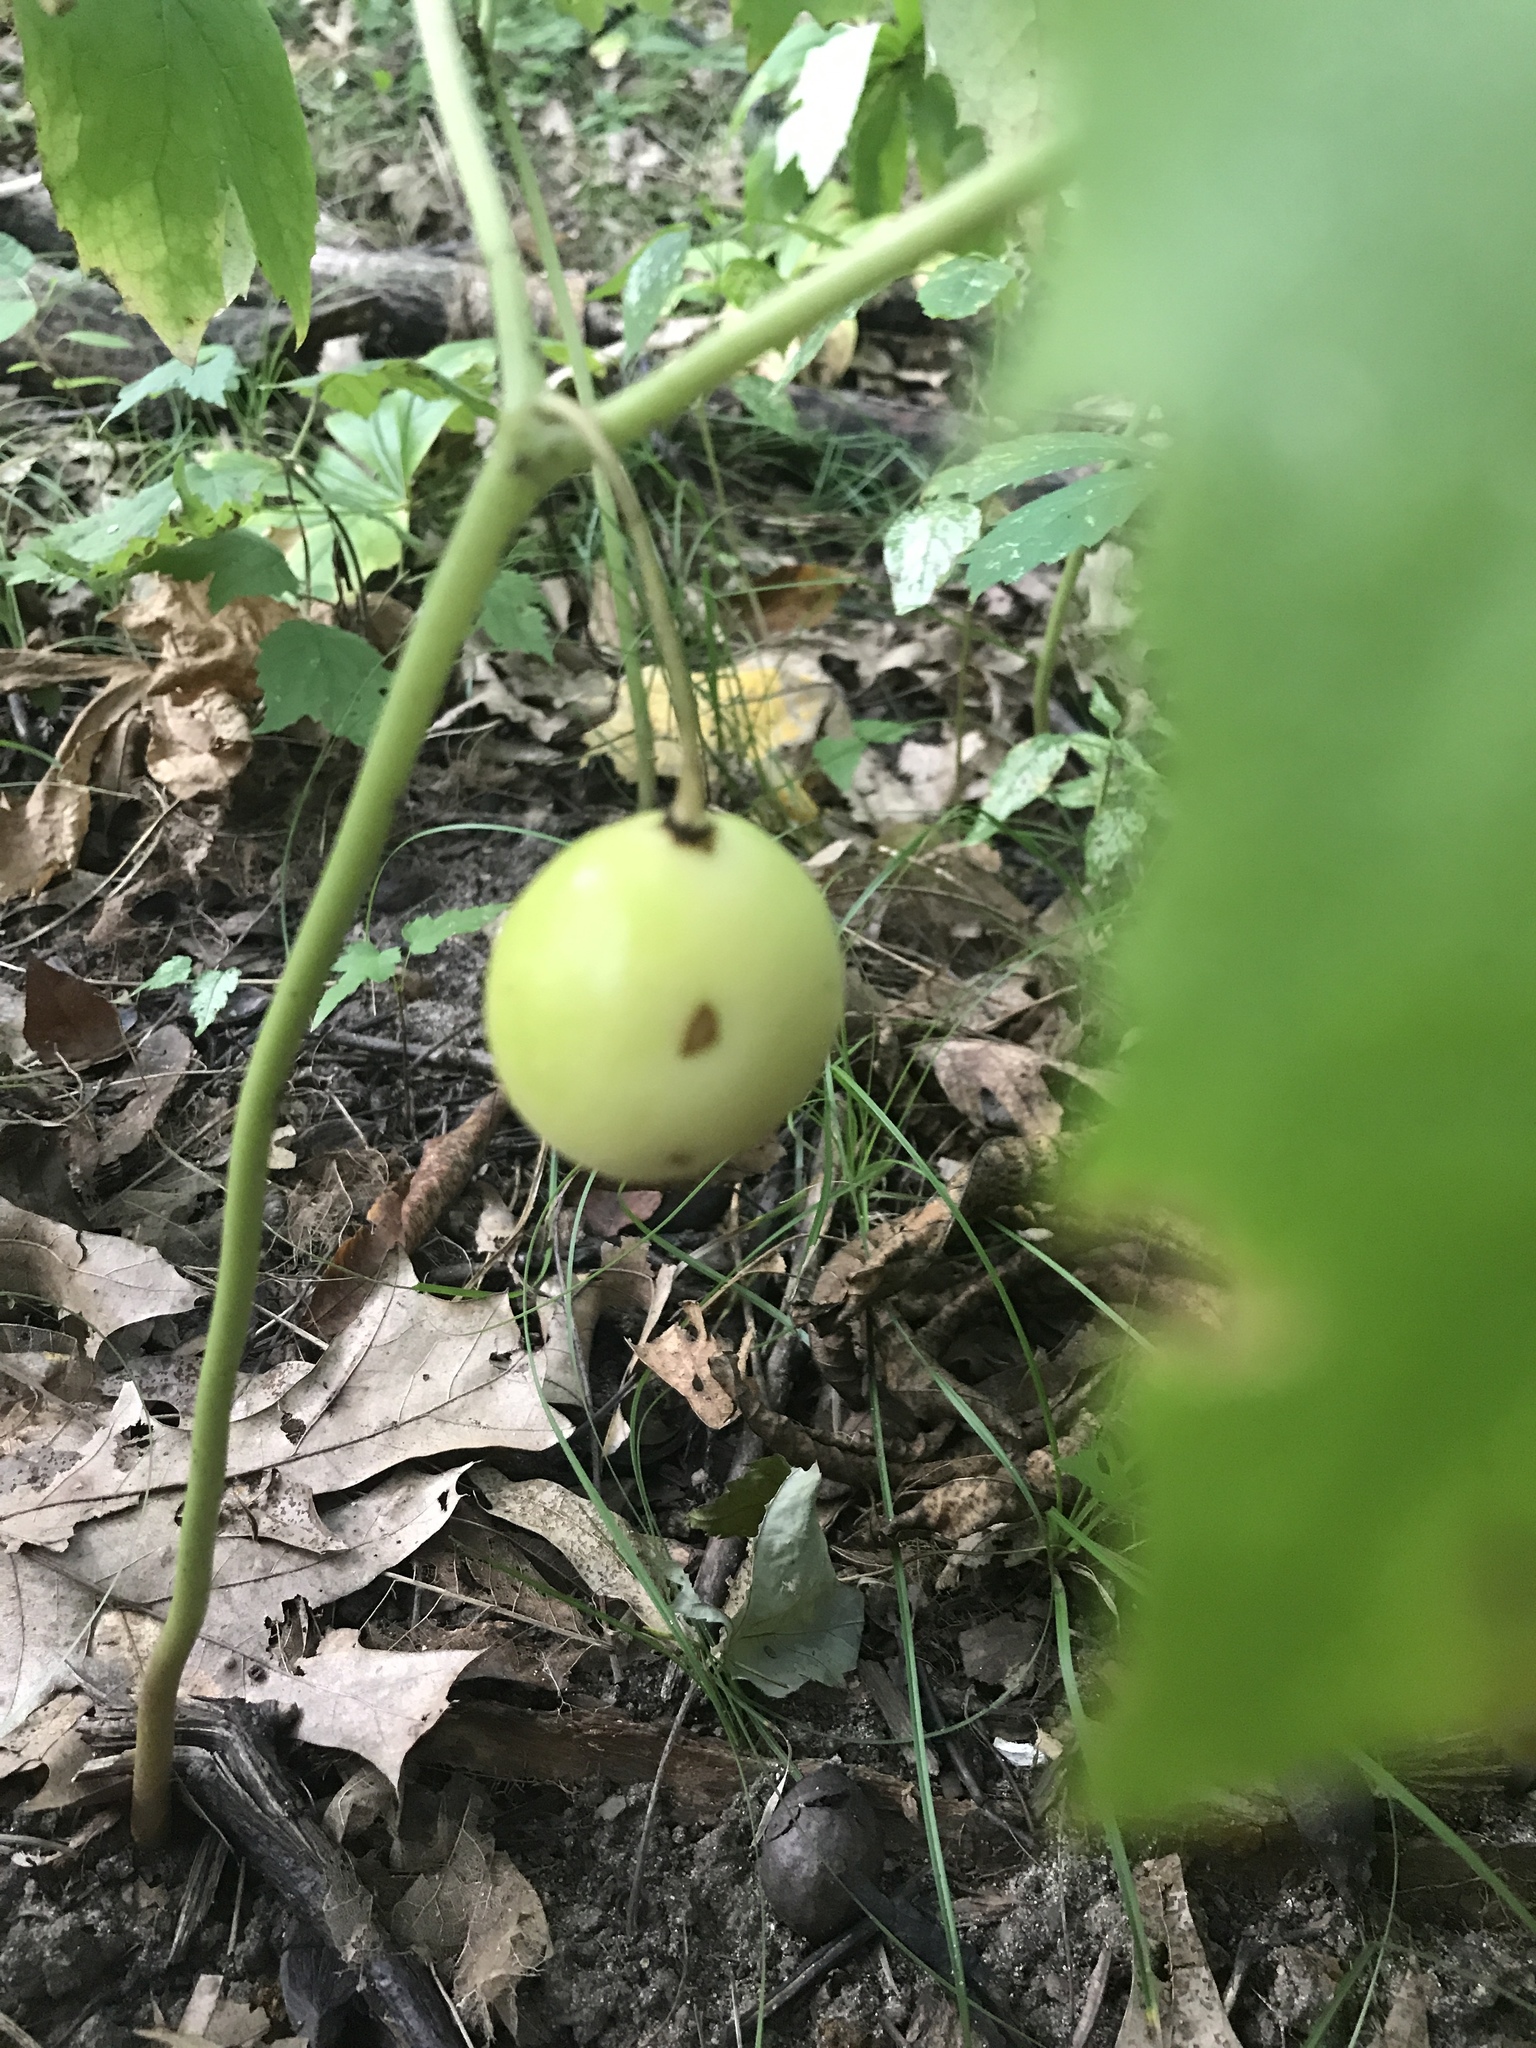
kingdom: Plantae
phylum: Tracheophyta
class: Magnoliopsida
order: Ranunculales
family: Berberidaceae
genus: Podophyllum
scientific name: Podophyllum peltatum
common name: Wild mandrake
